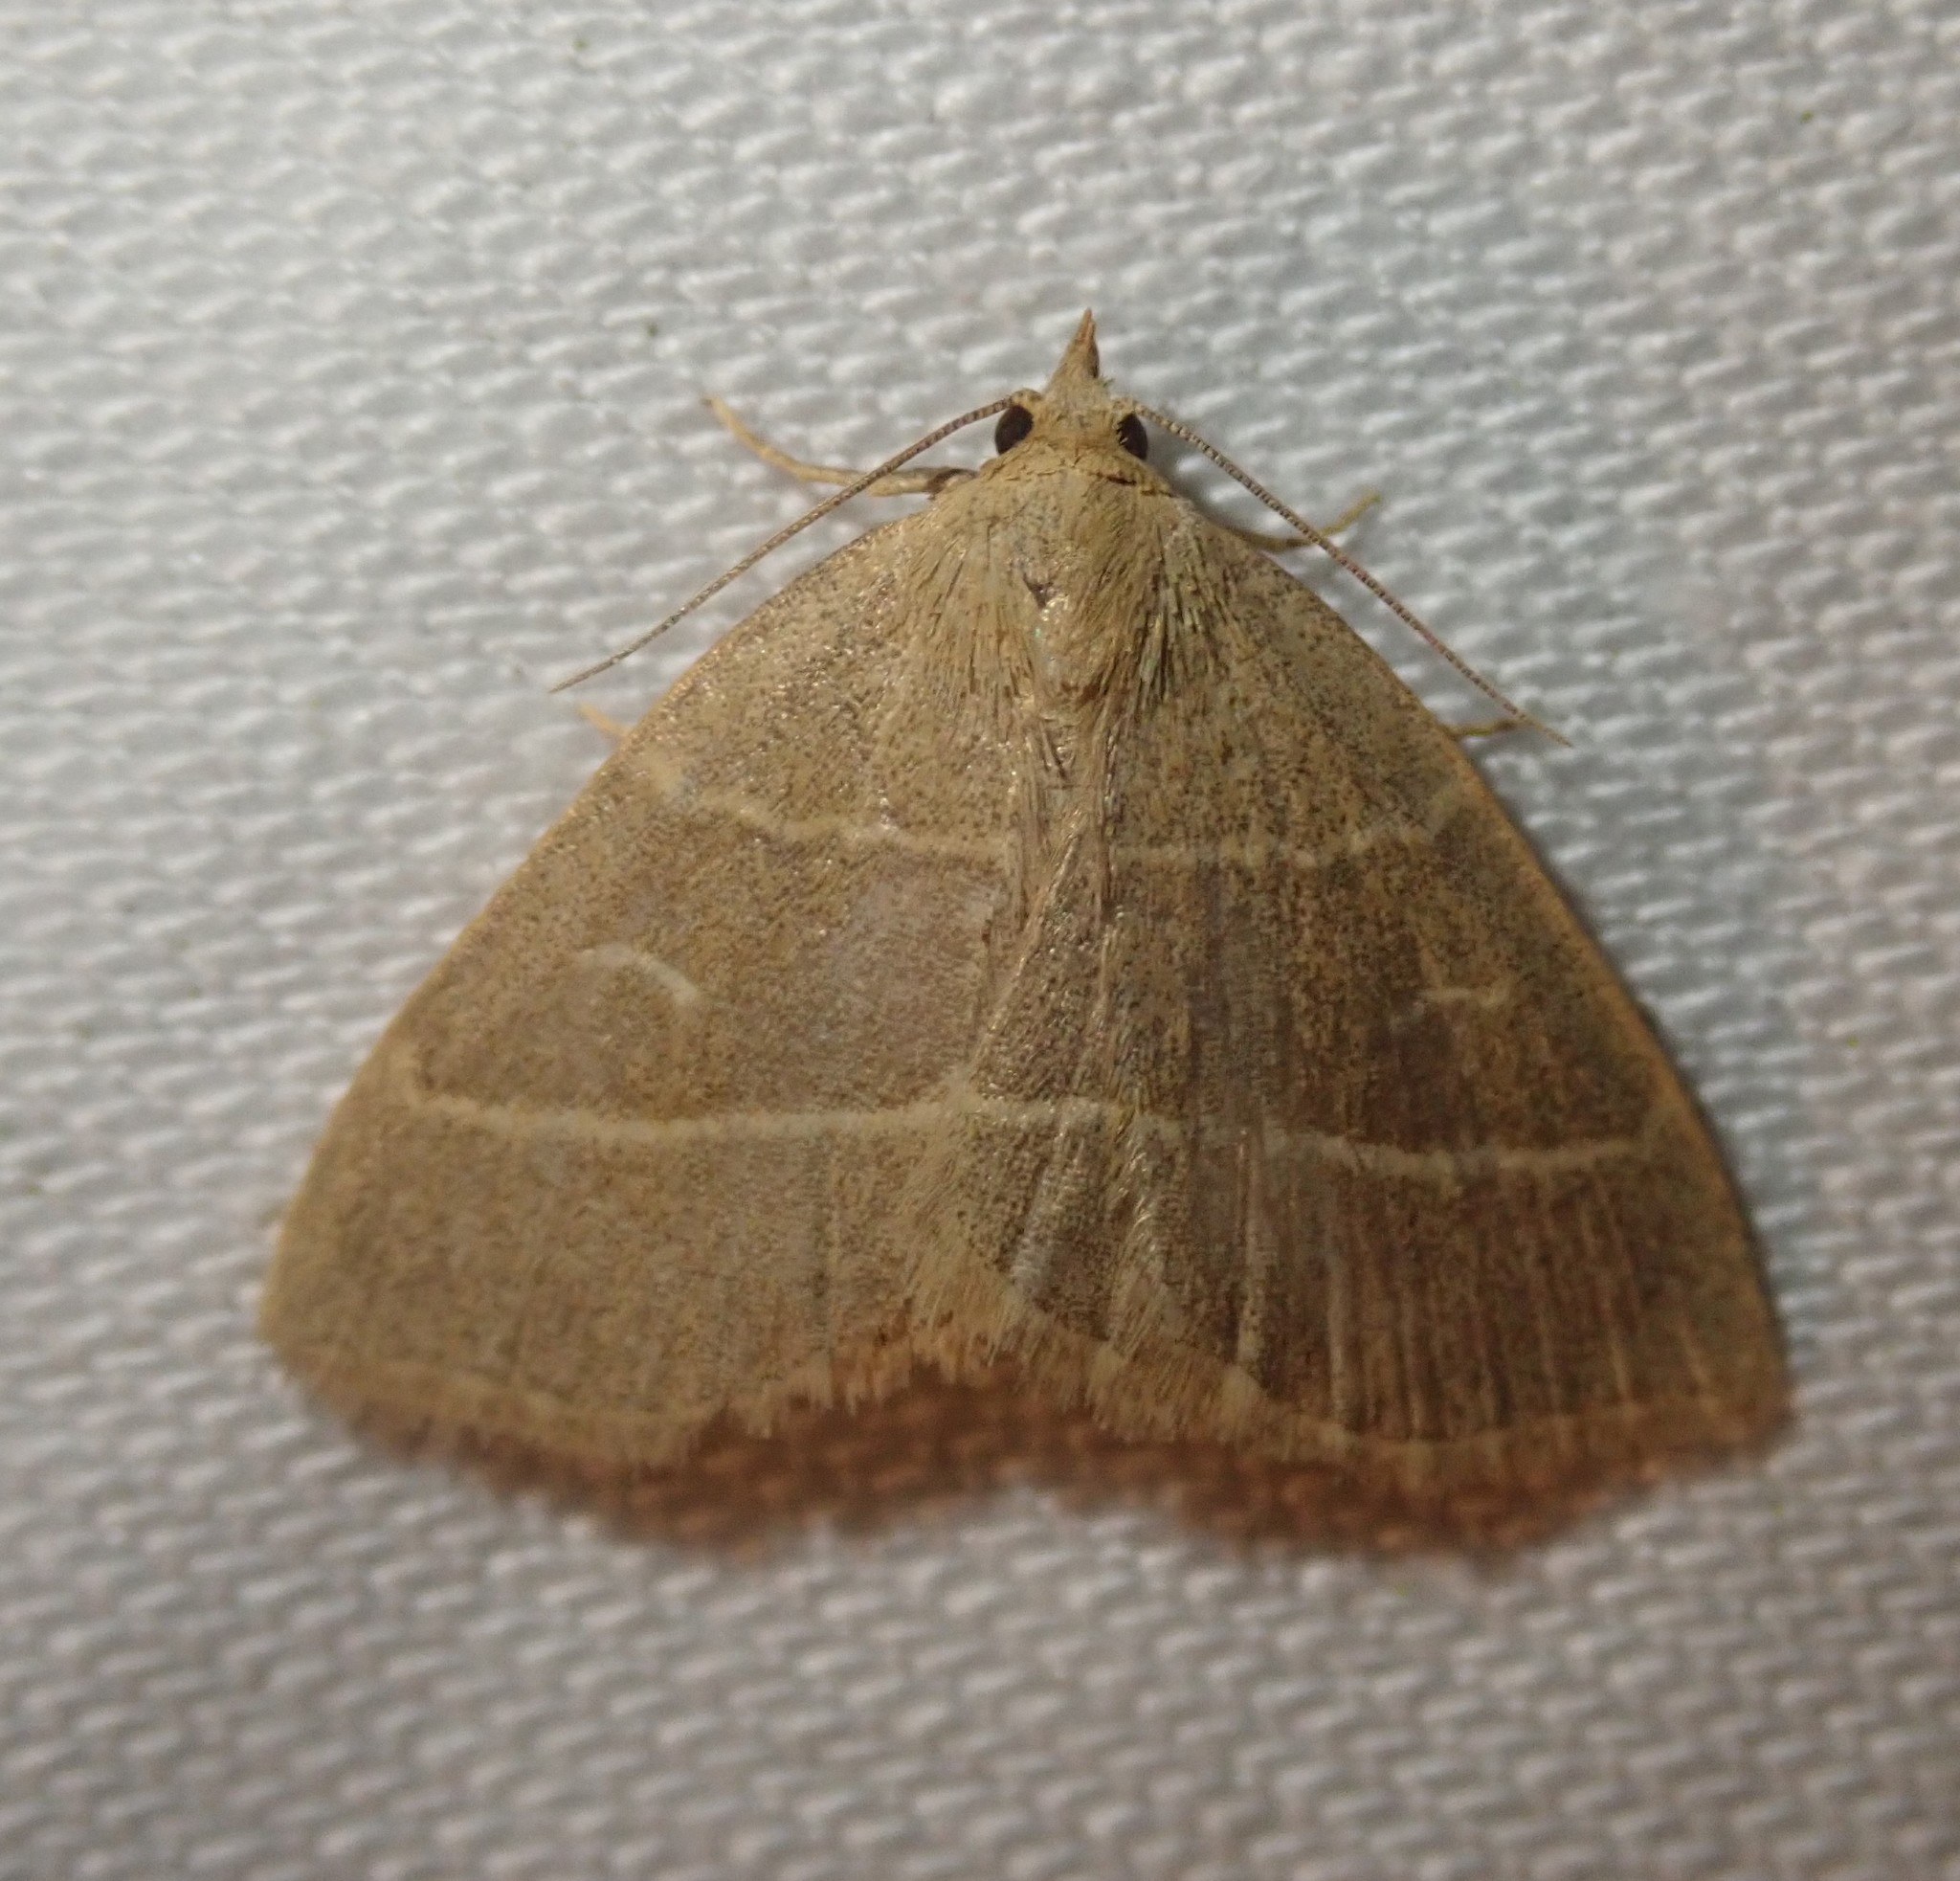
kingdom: Animalia
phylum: Arthropoda
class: Insecta
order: Lepidoptera
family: Erebidae
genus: Trisateles
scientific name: Trisateles emortualis
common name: Olive crescent
